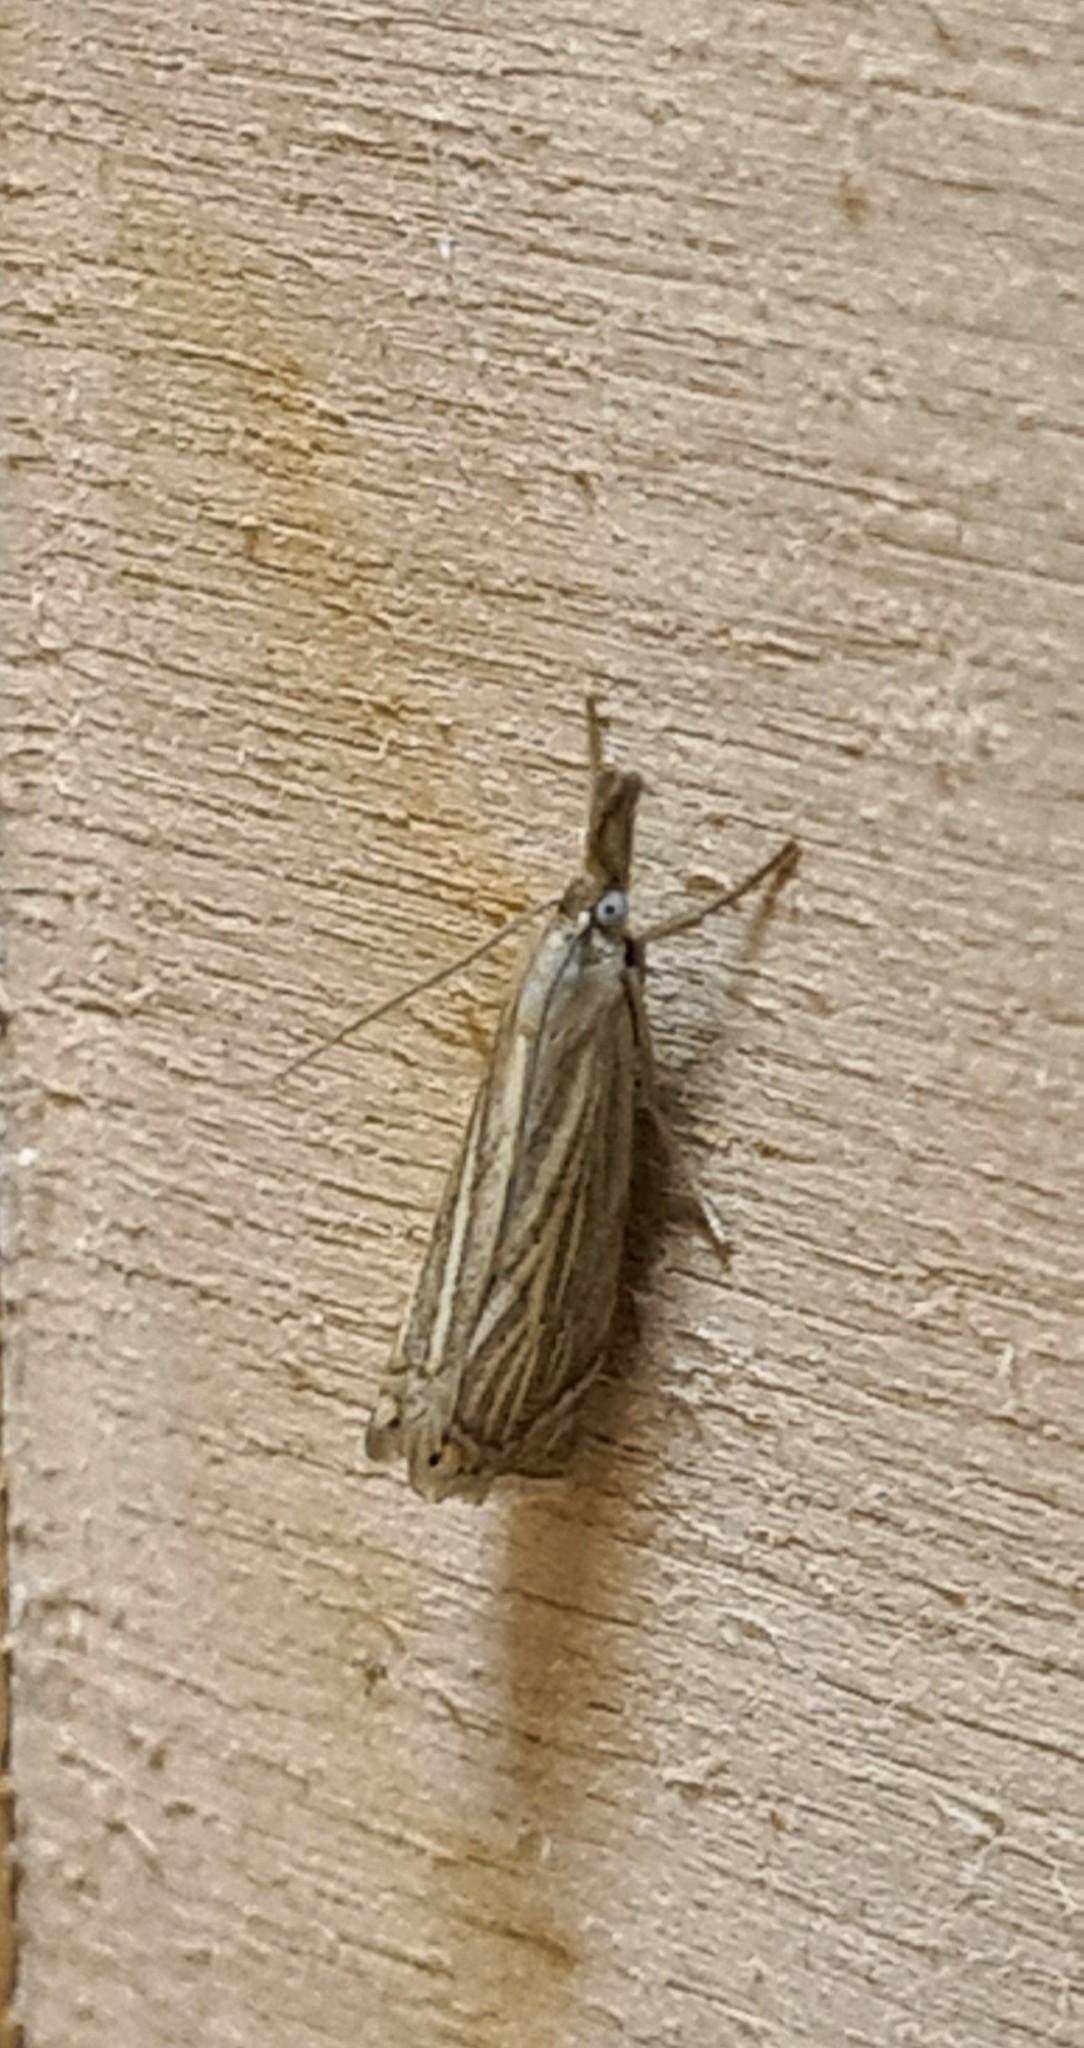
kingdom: Animalia
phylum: Arthropoda
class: Insecta
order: Lepidoptera
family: Crambidae
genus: Chrysoteuchia
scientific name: Chrysoteuchia culmella
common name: Garden grass-veneer
